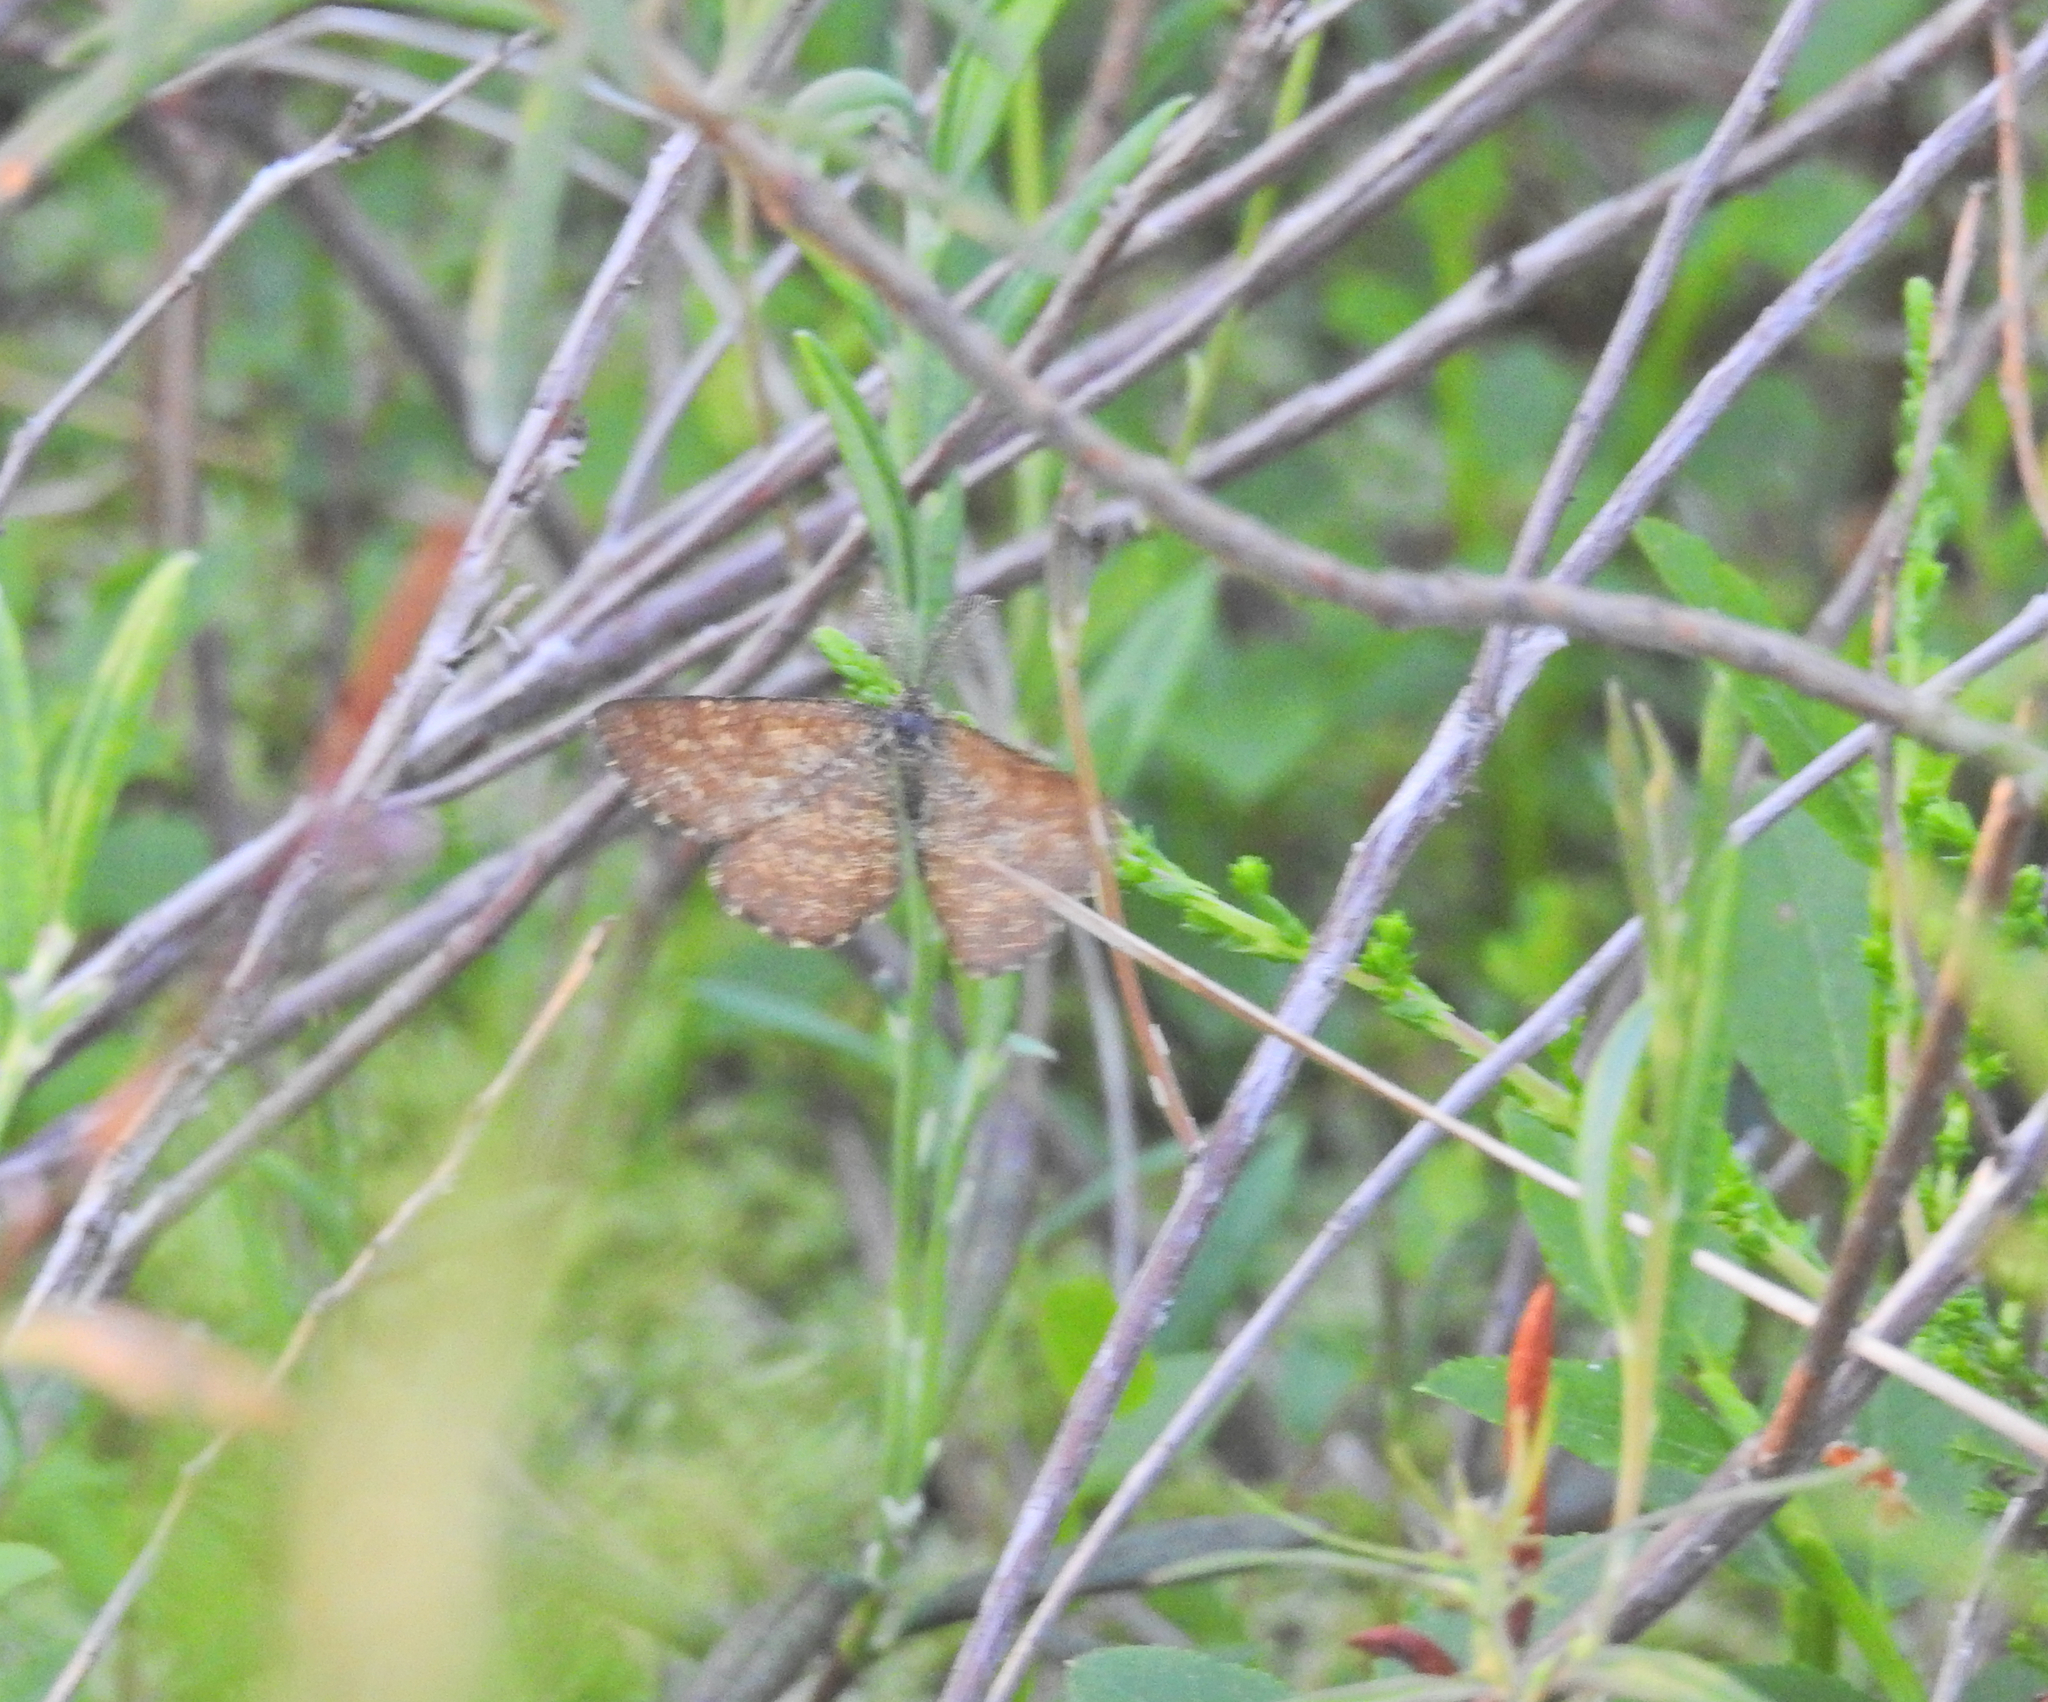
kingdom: Animalia
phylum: Arthropoda
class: Insecta
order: Lepidoptera
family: Geometridae
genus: Ematurga
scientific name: Ematurga atomaria
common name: Common heath
